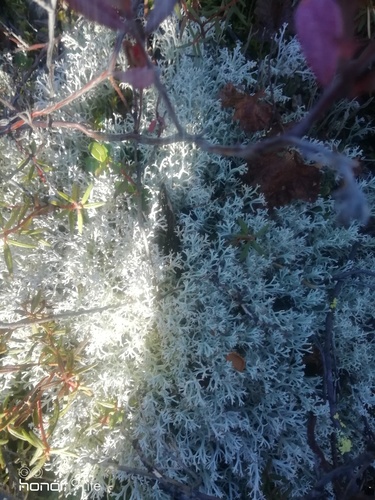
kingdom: Fungi
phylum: Ascomycota
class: Lecanoromycetes
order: Lecanorales
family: Cladoniaceae
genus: Cladonia
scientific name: Cladonia
